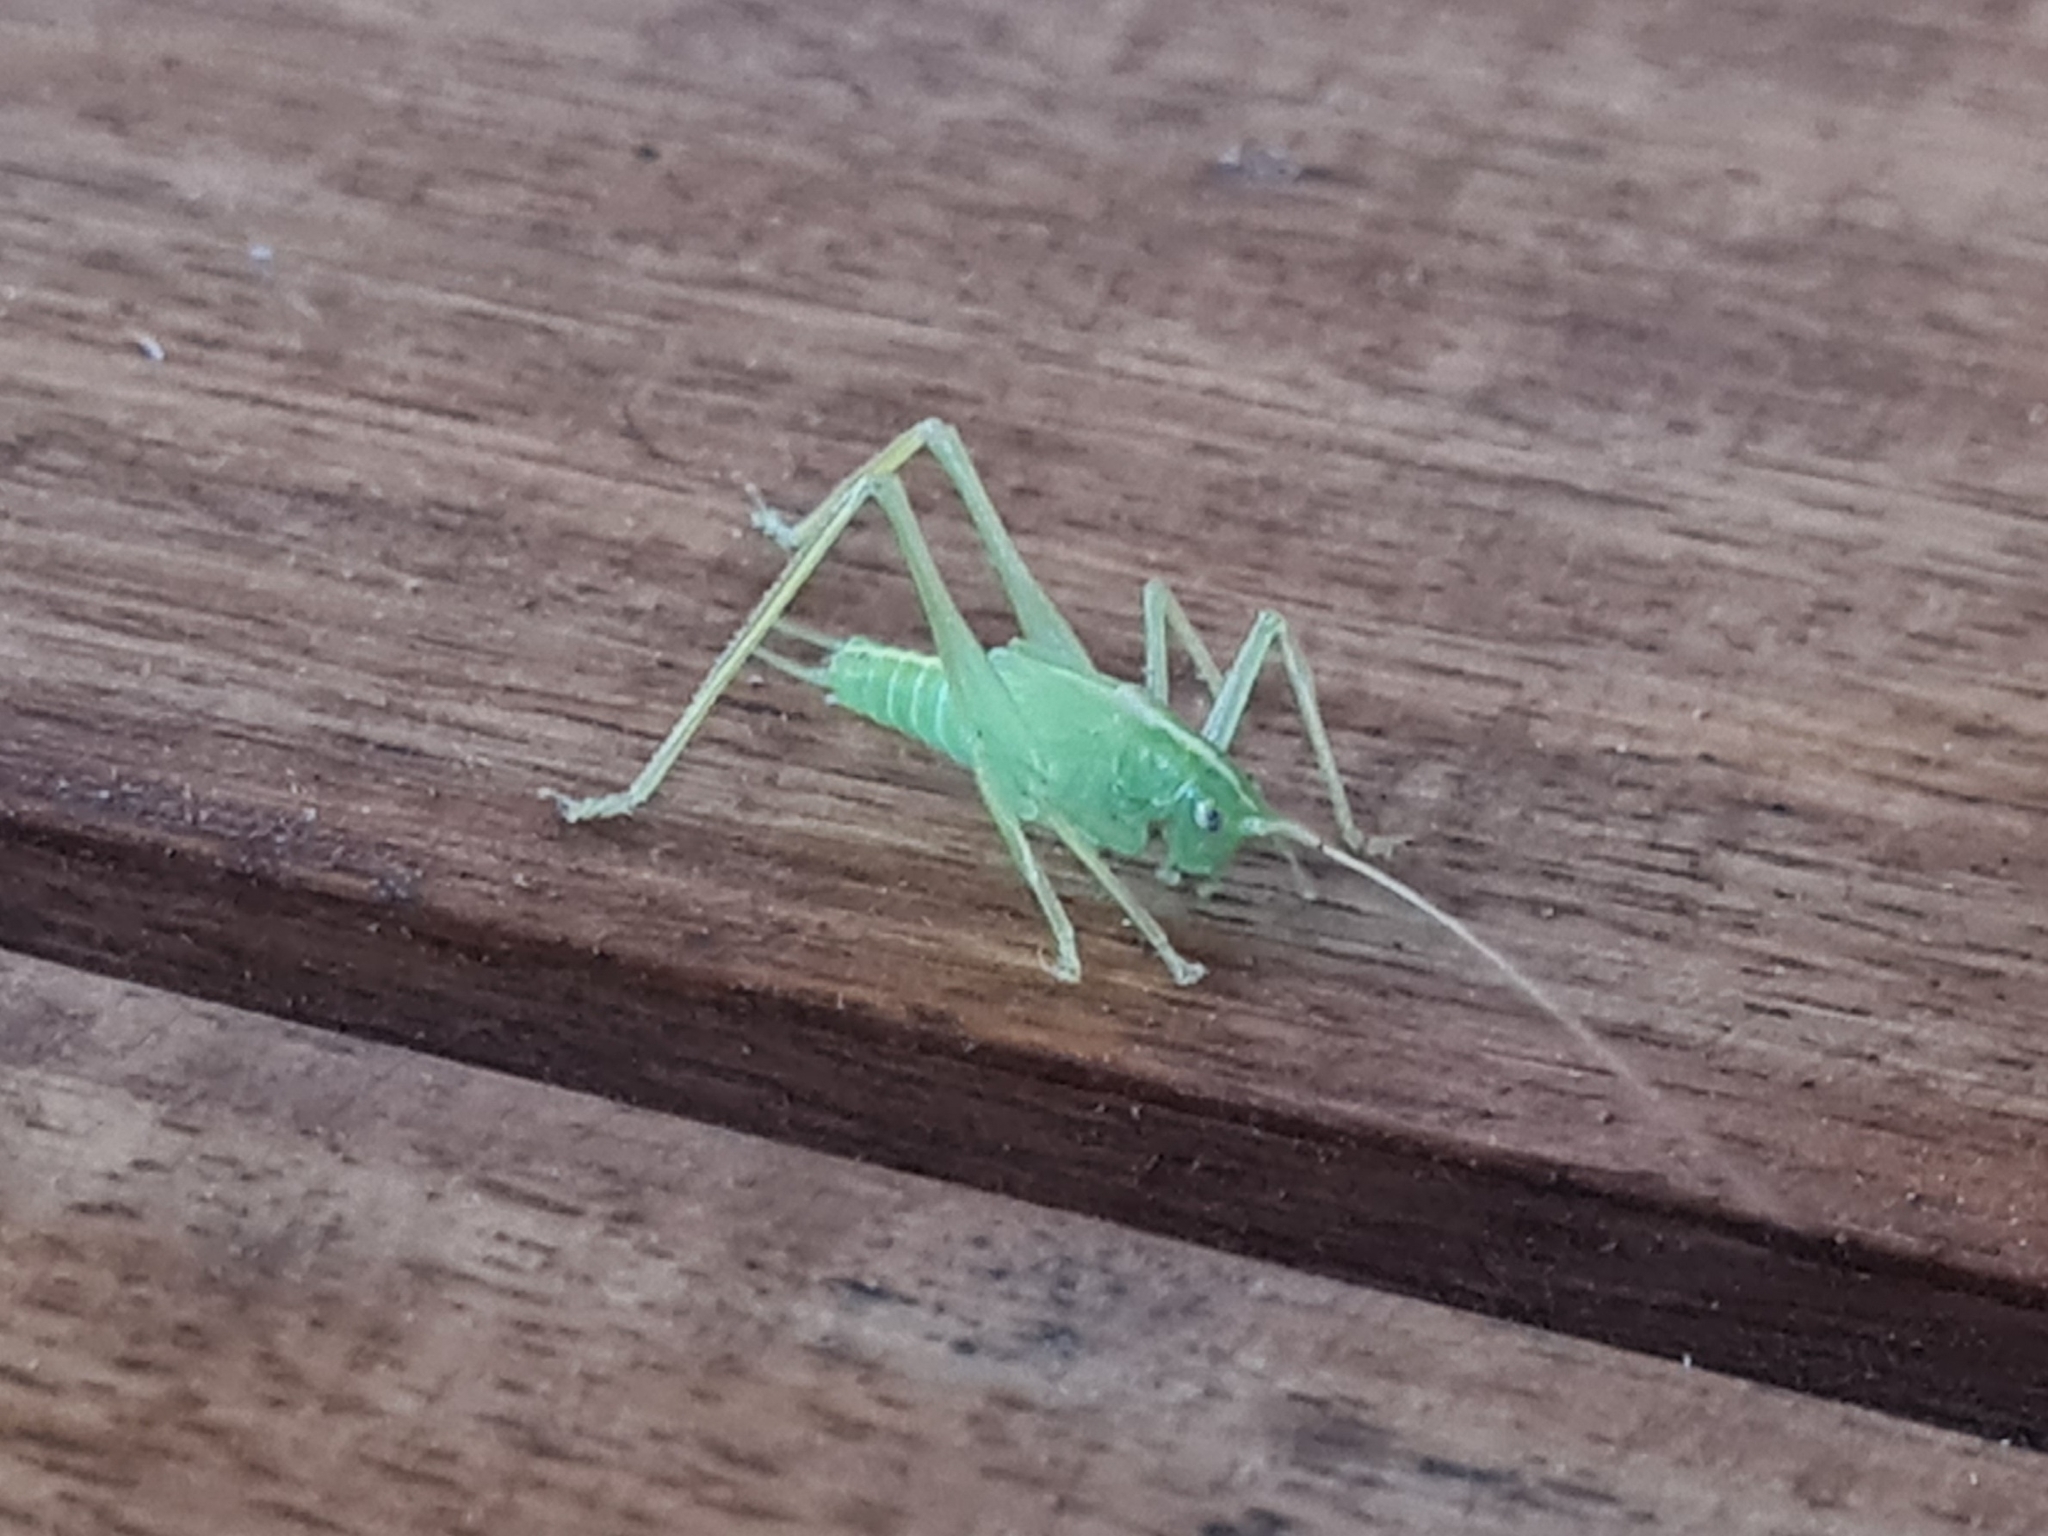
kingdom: Animalia
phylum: Arthropoda
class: Insecta
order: Orthoptera
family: Tettigoniidae
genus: Meconema
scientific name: Meconema thalassinum
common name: Oak bush-cricket
